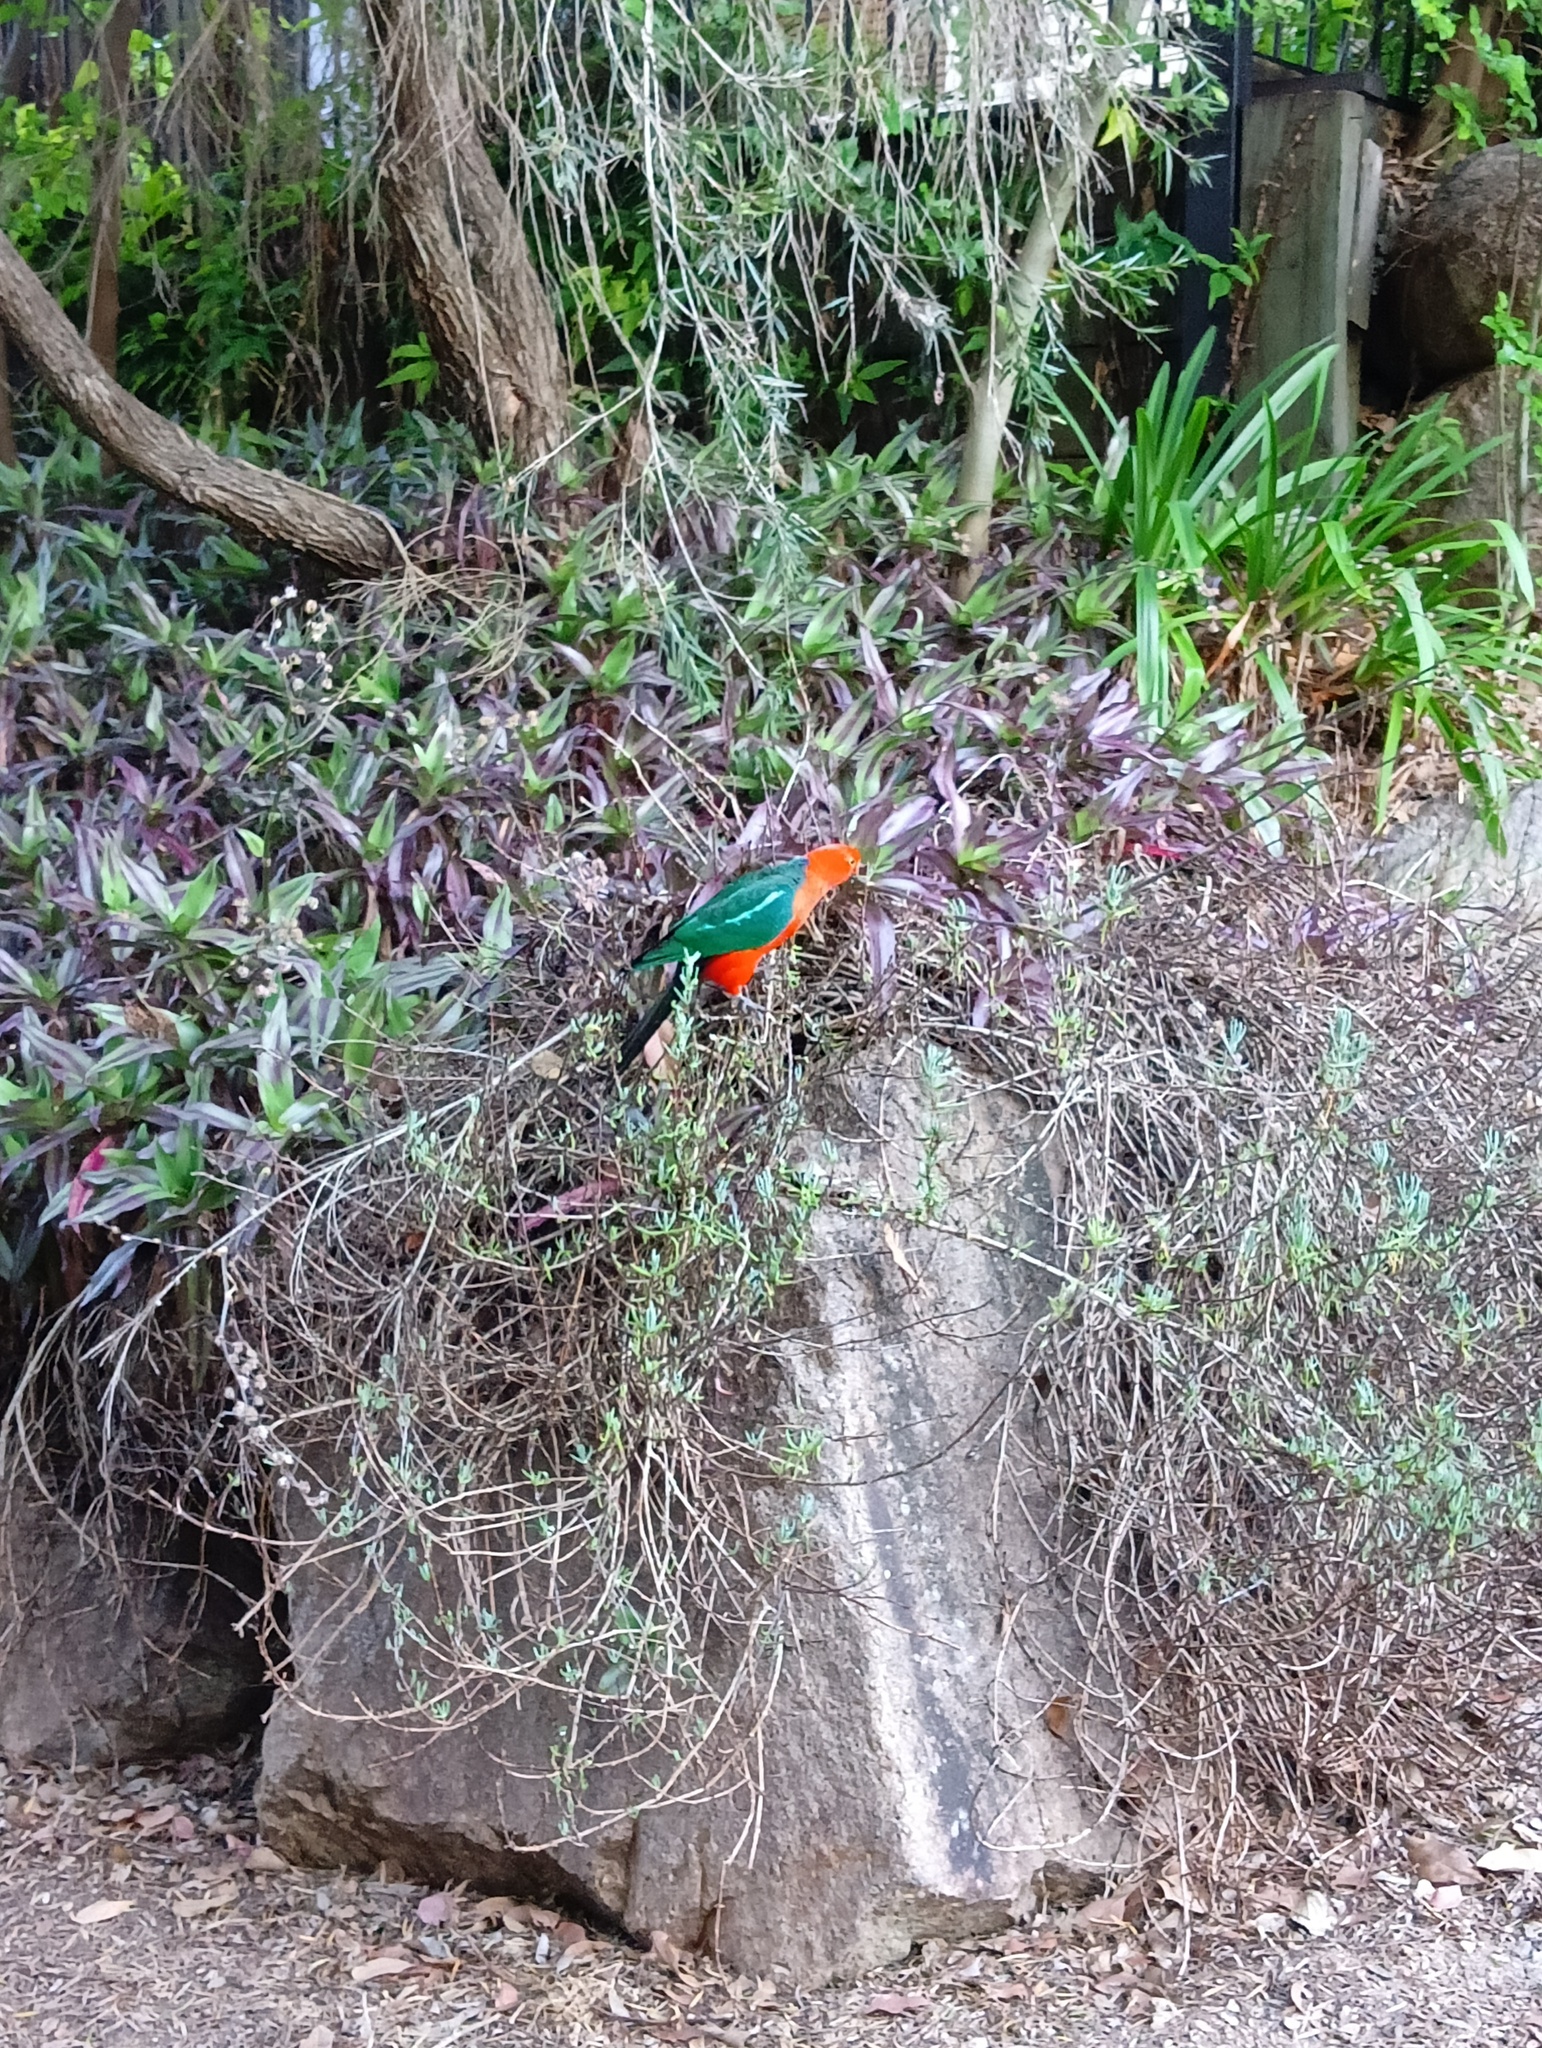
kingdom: Animalia
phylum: Chordata
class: Aves
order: Psittaciformes
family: Psittacidae
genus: Alisterus
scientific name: Alisterus scapularis
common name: Australian king parrot
